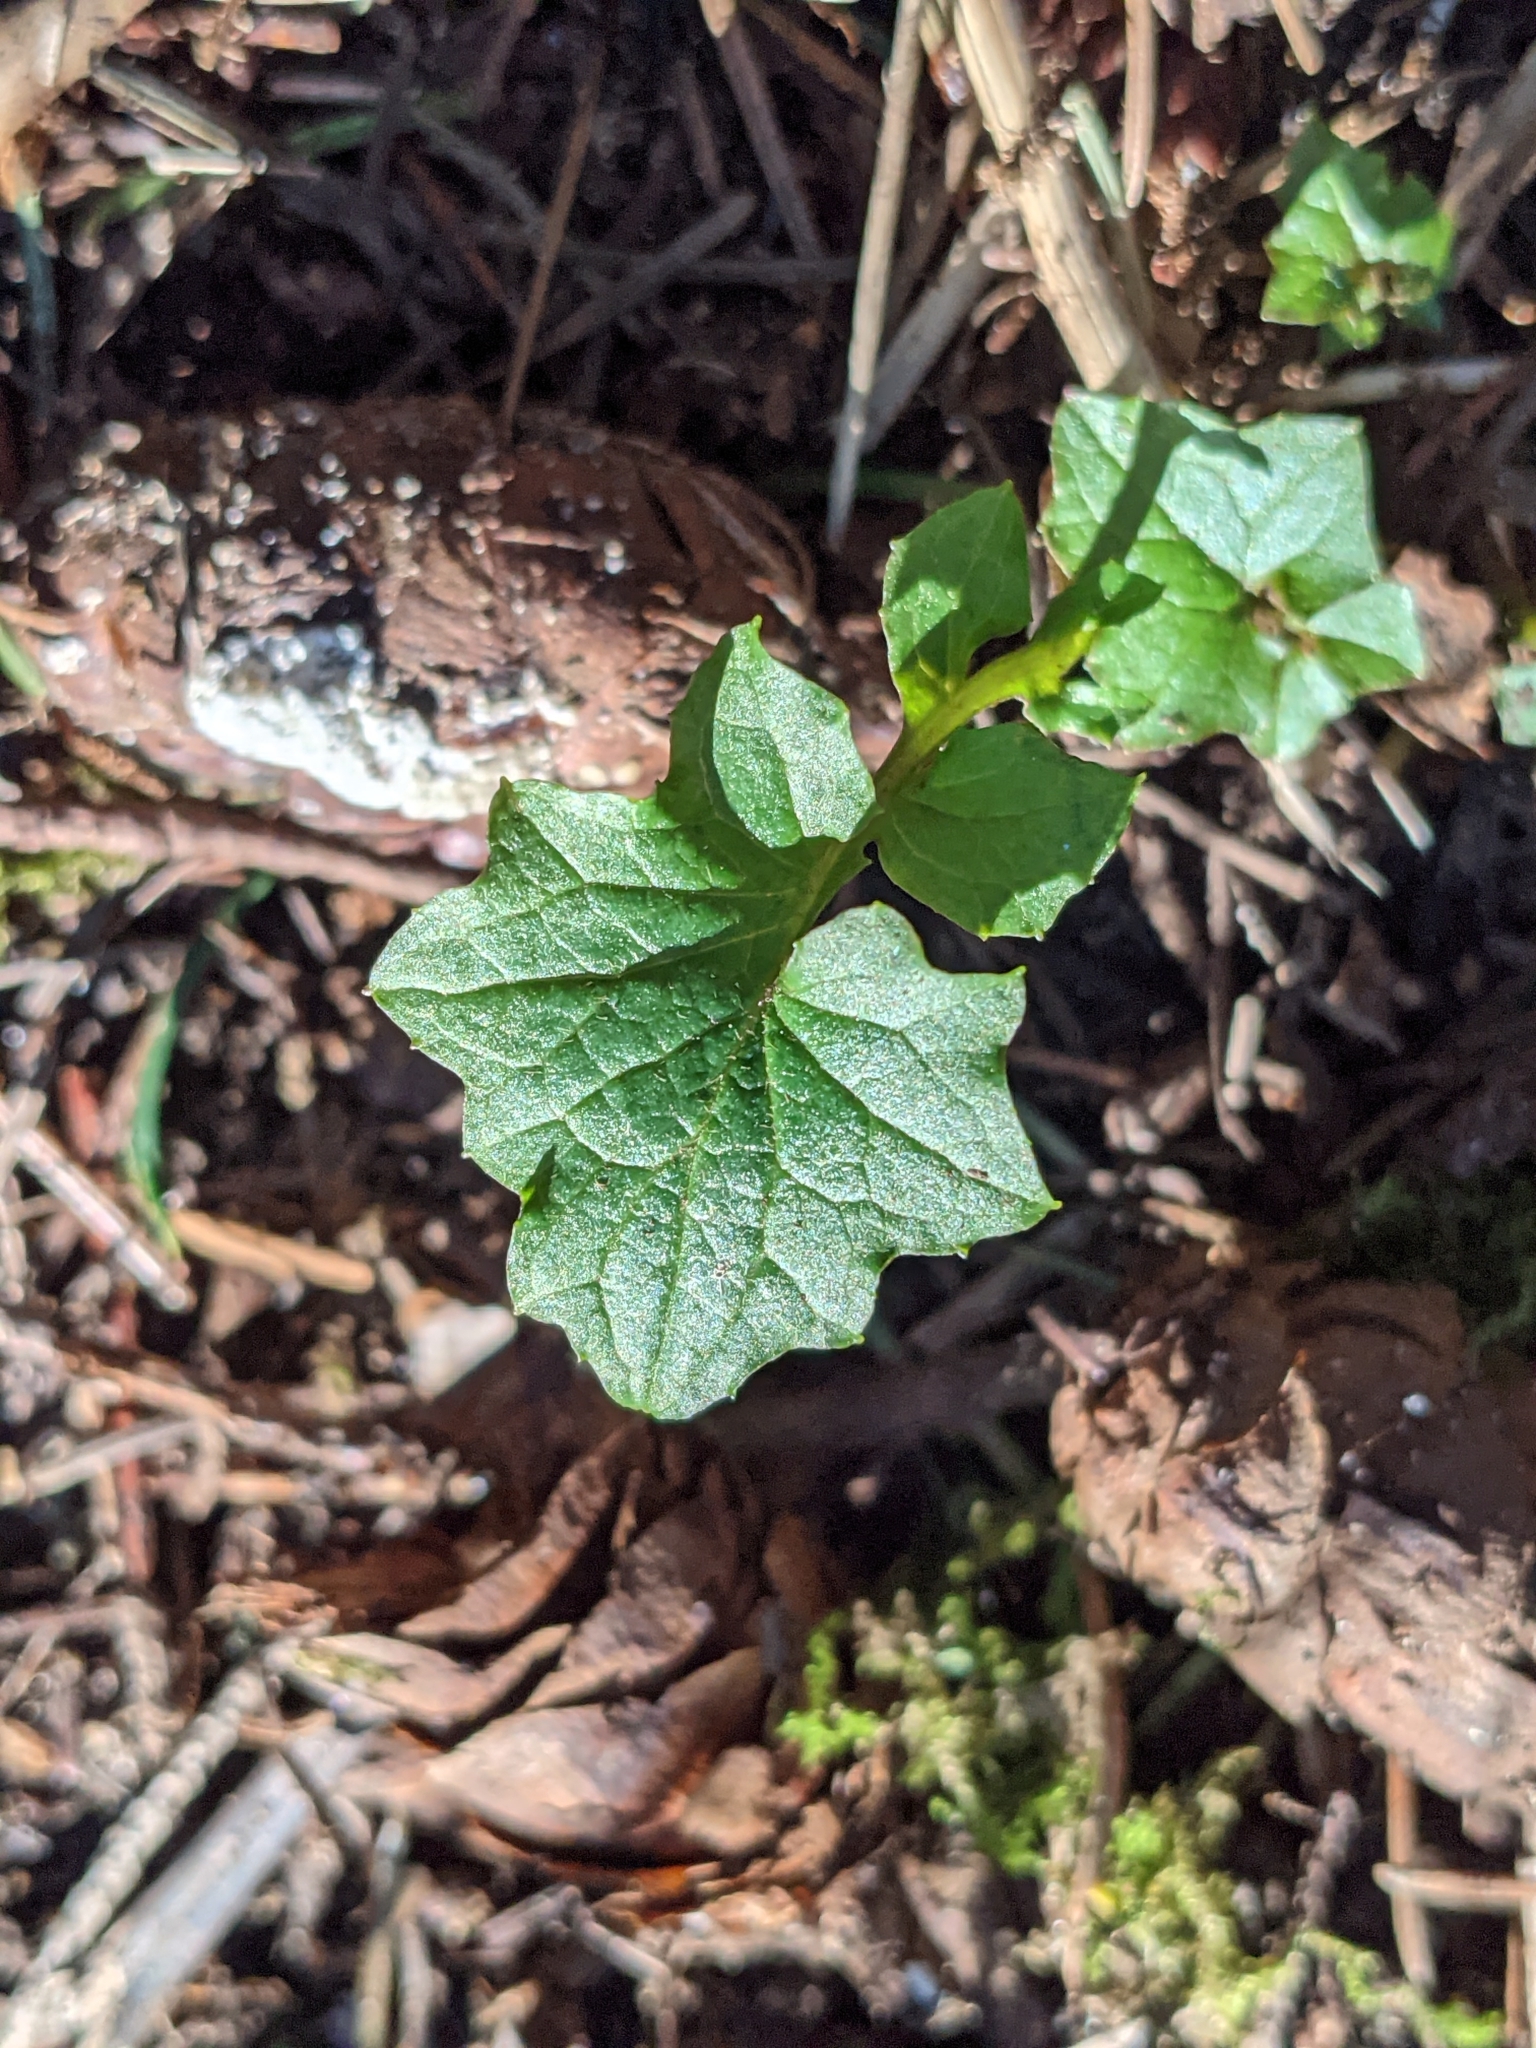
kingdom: Plantae
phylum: Tracheophyta
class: Magnoliopsida
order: Asterales
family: Asteraceae
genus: Mycelis
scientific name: Mycelis muralis
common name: Wall lettuce
